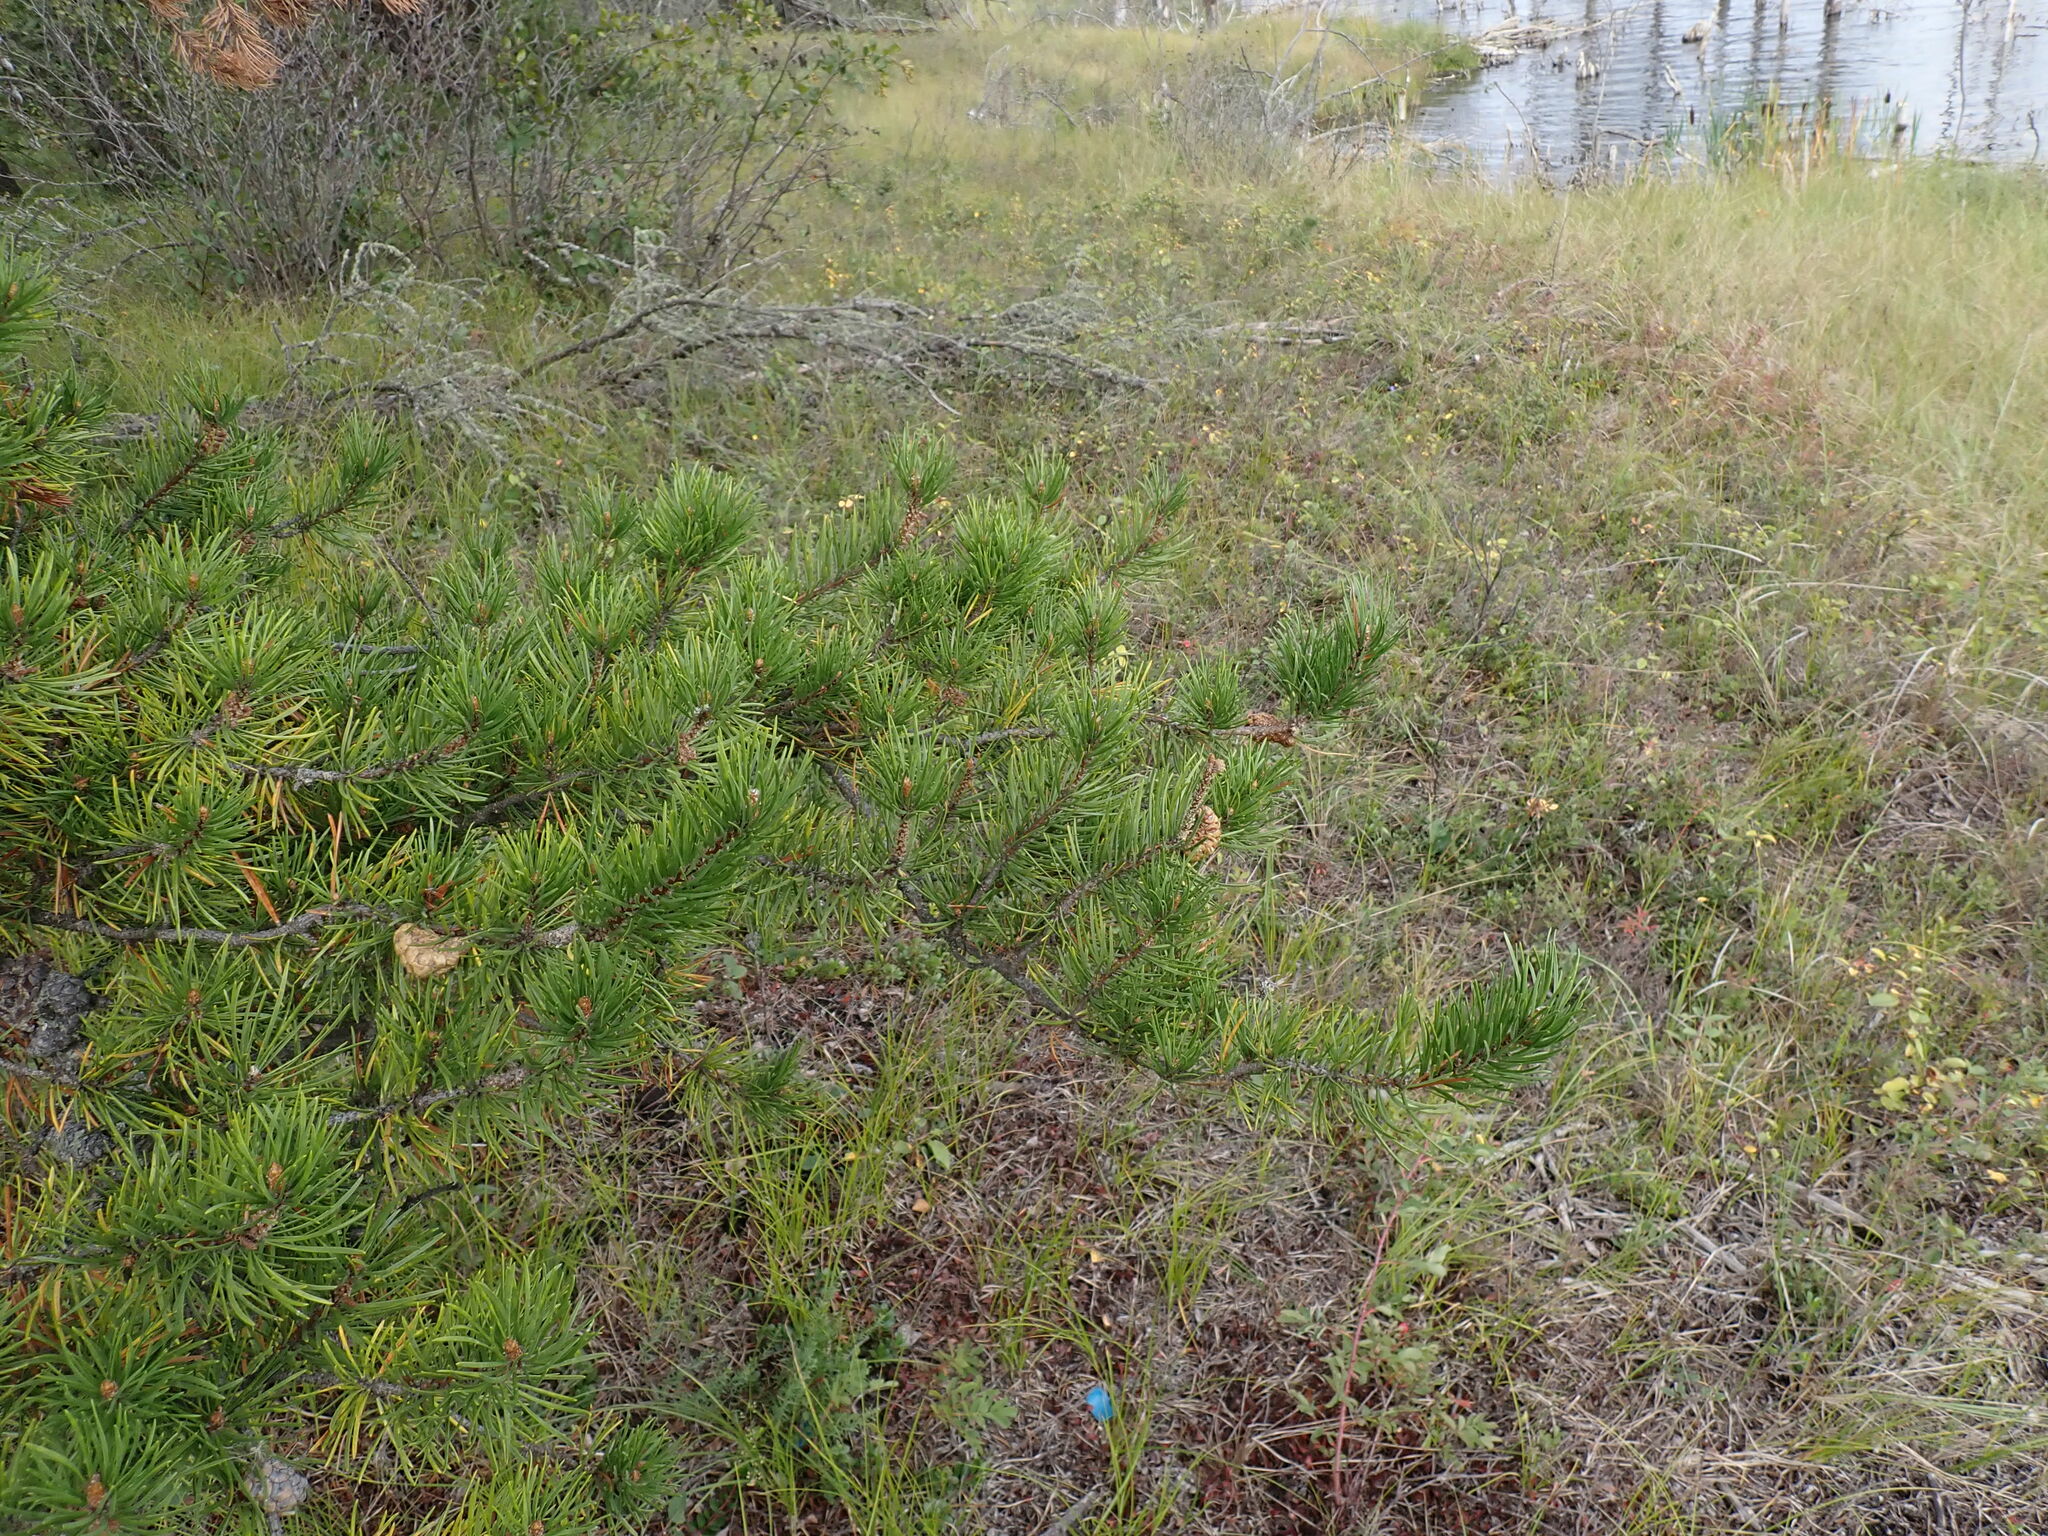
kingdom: Plantae
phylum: Tracheophyta
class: Pinopsida
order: Pinales
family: Pinaceae
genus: Pinus
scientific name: Pinus banksiana
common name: Jack pine
